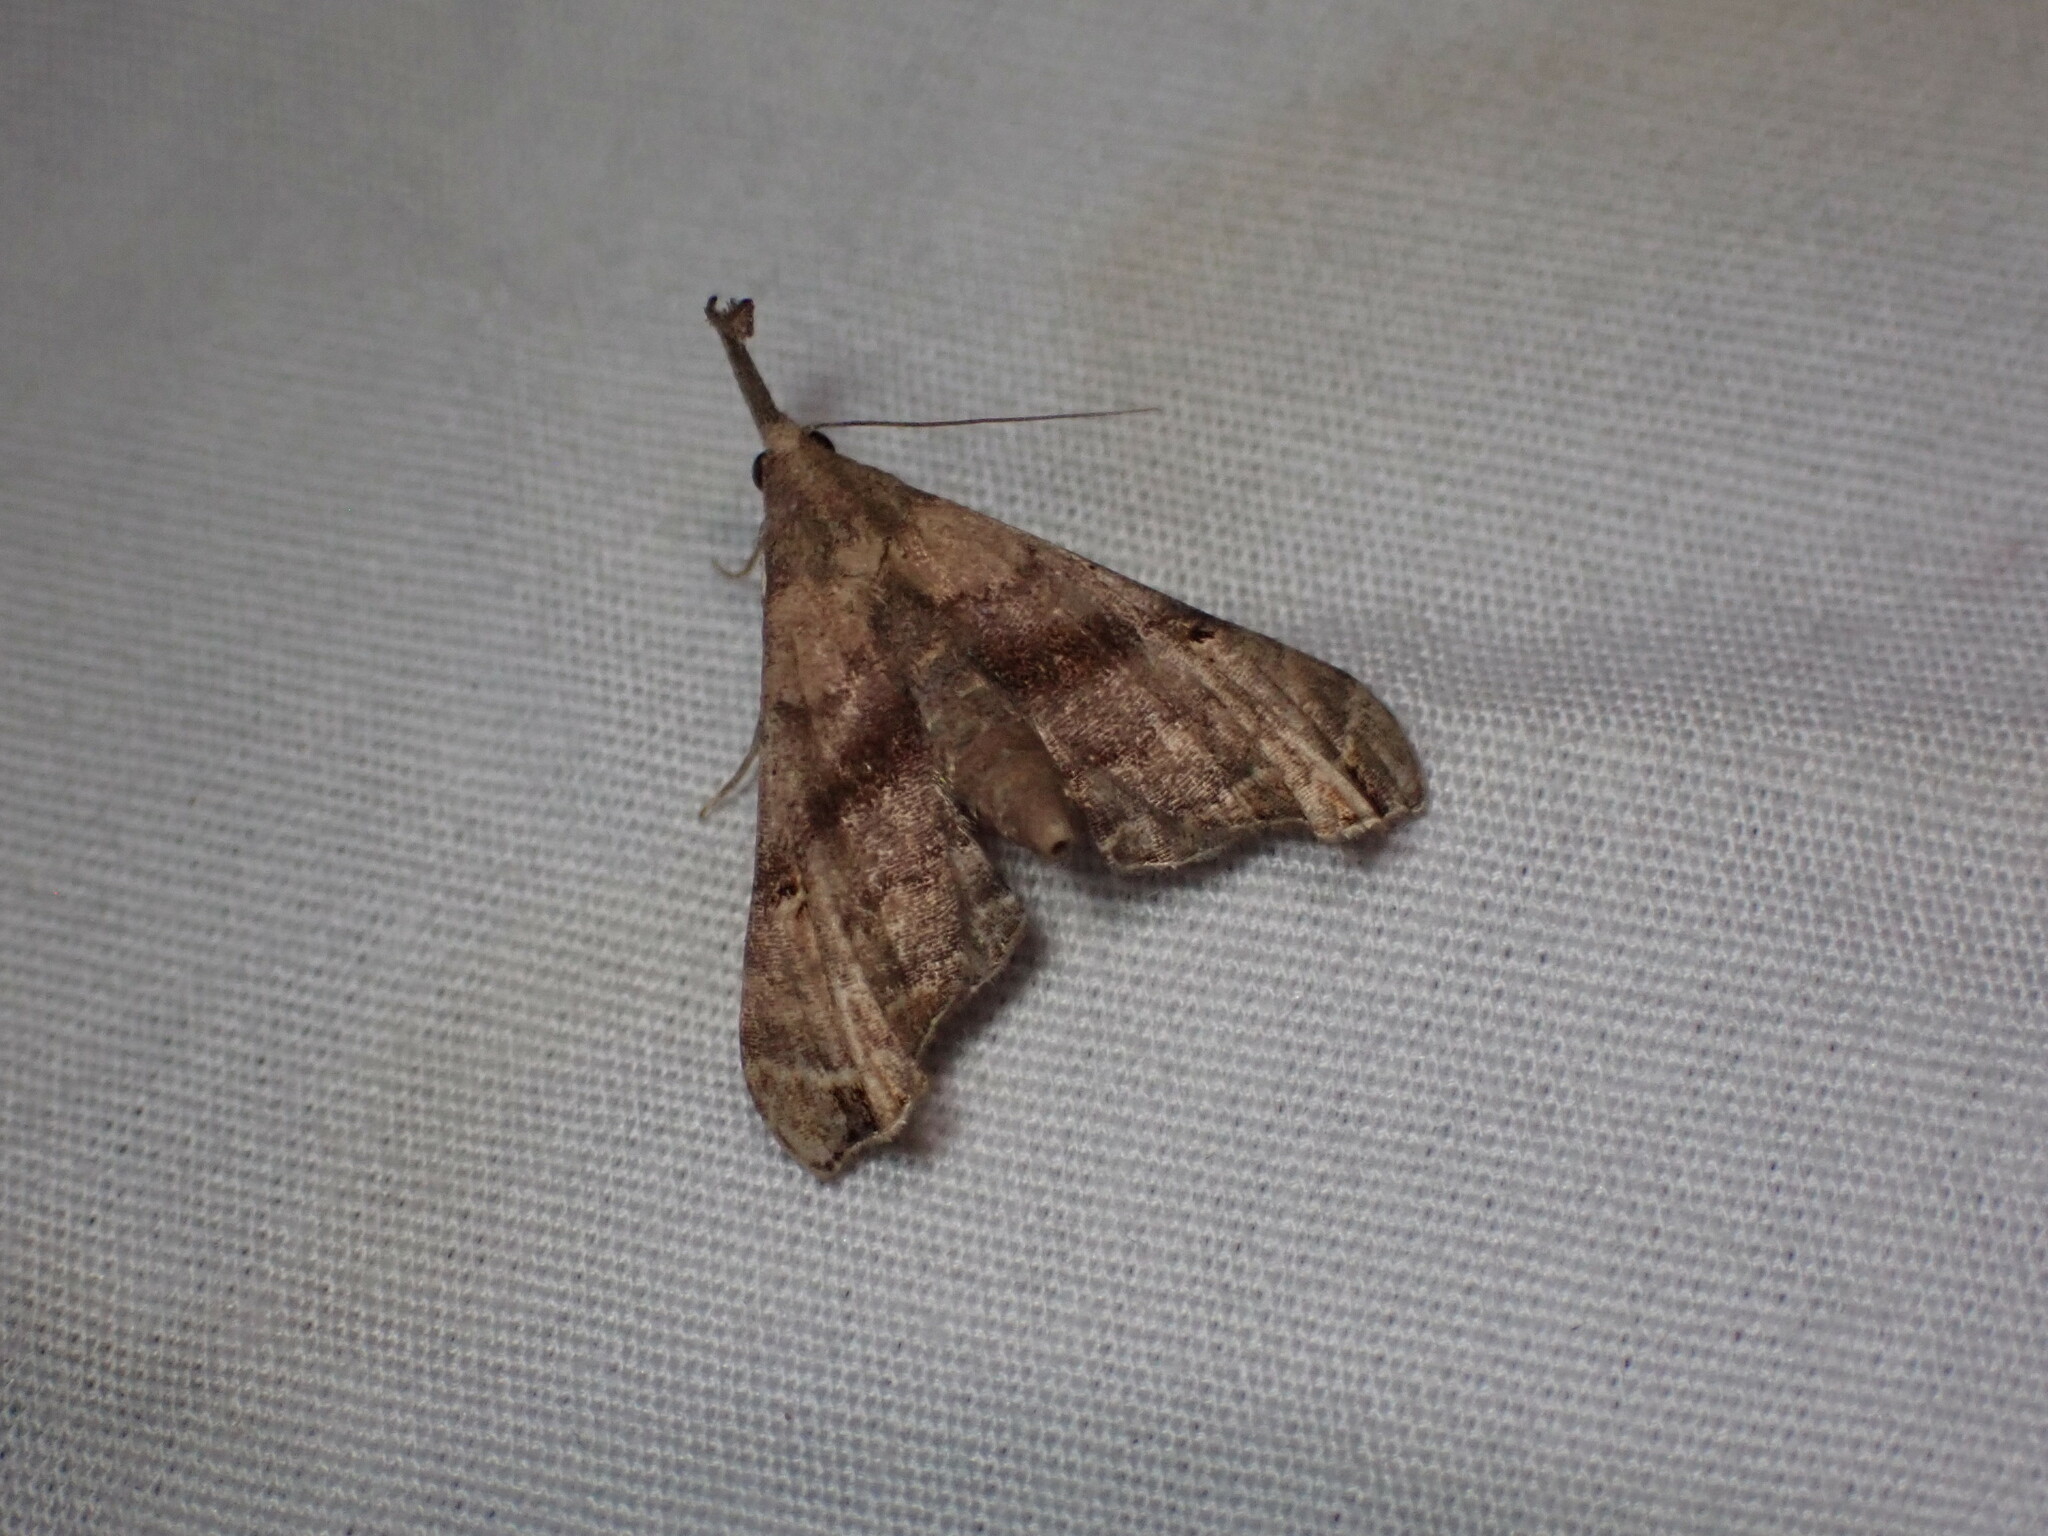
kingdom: Animalia
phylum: Arthropoda
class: Insecta
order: Lepidoptera
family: Erebidae
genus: Palthis
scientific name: Palthis asopialis
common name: Faint-spotted palthis moth
